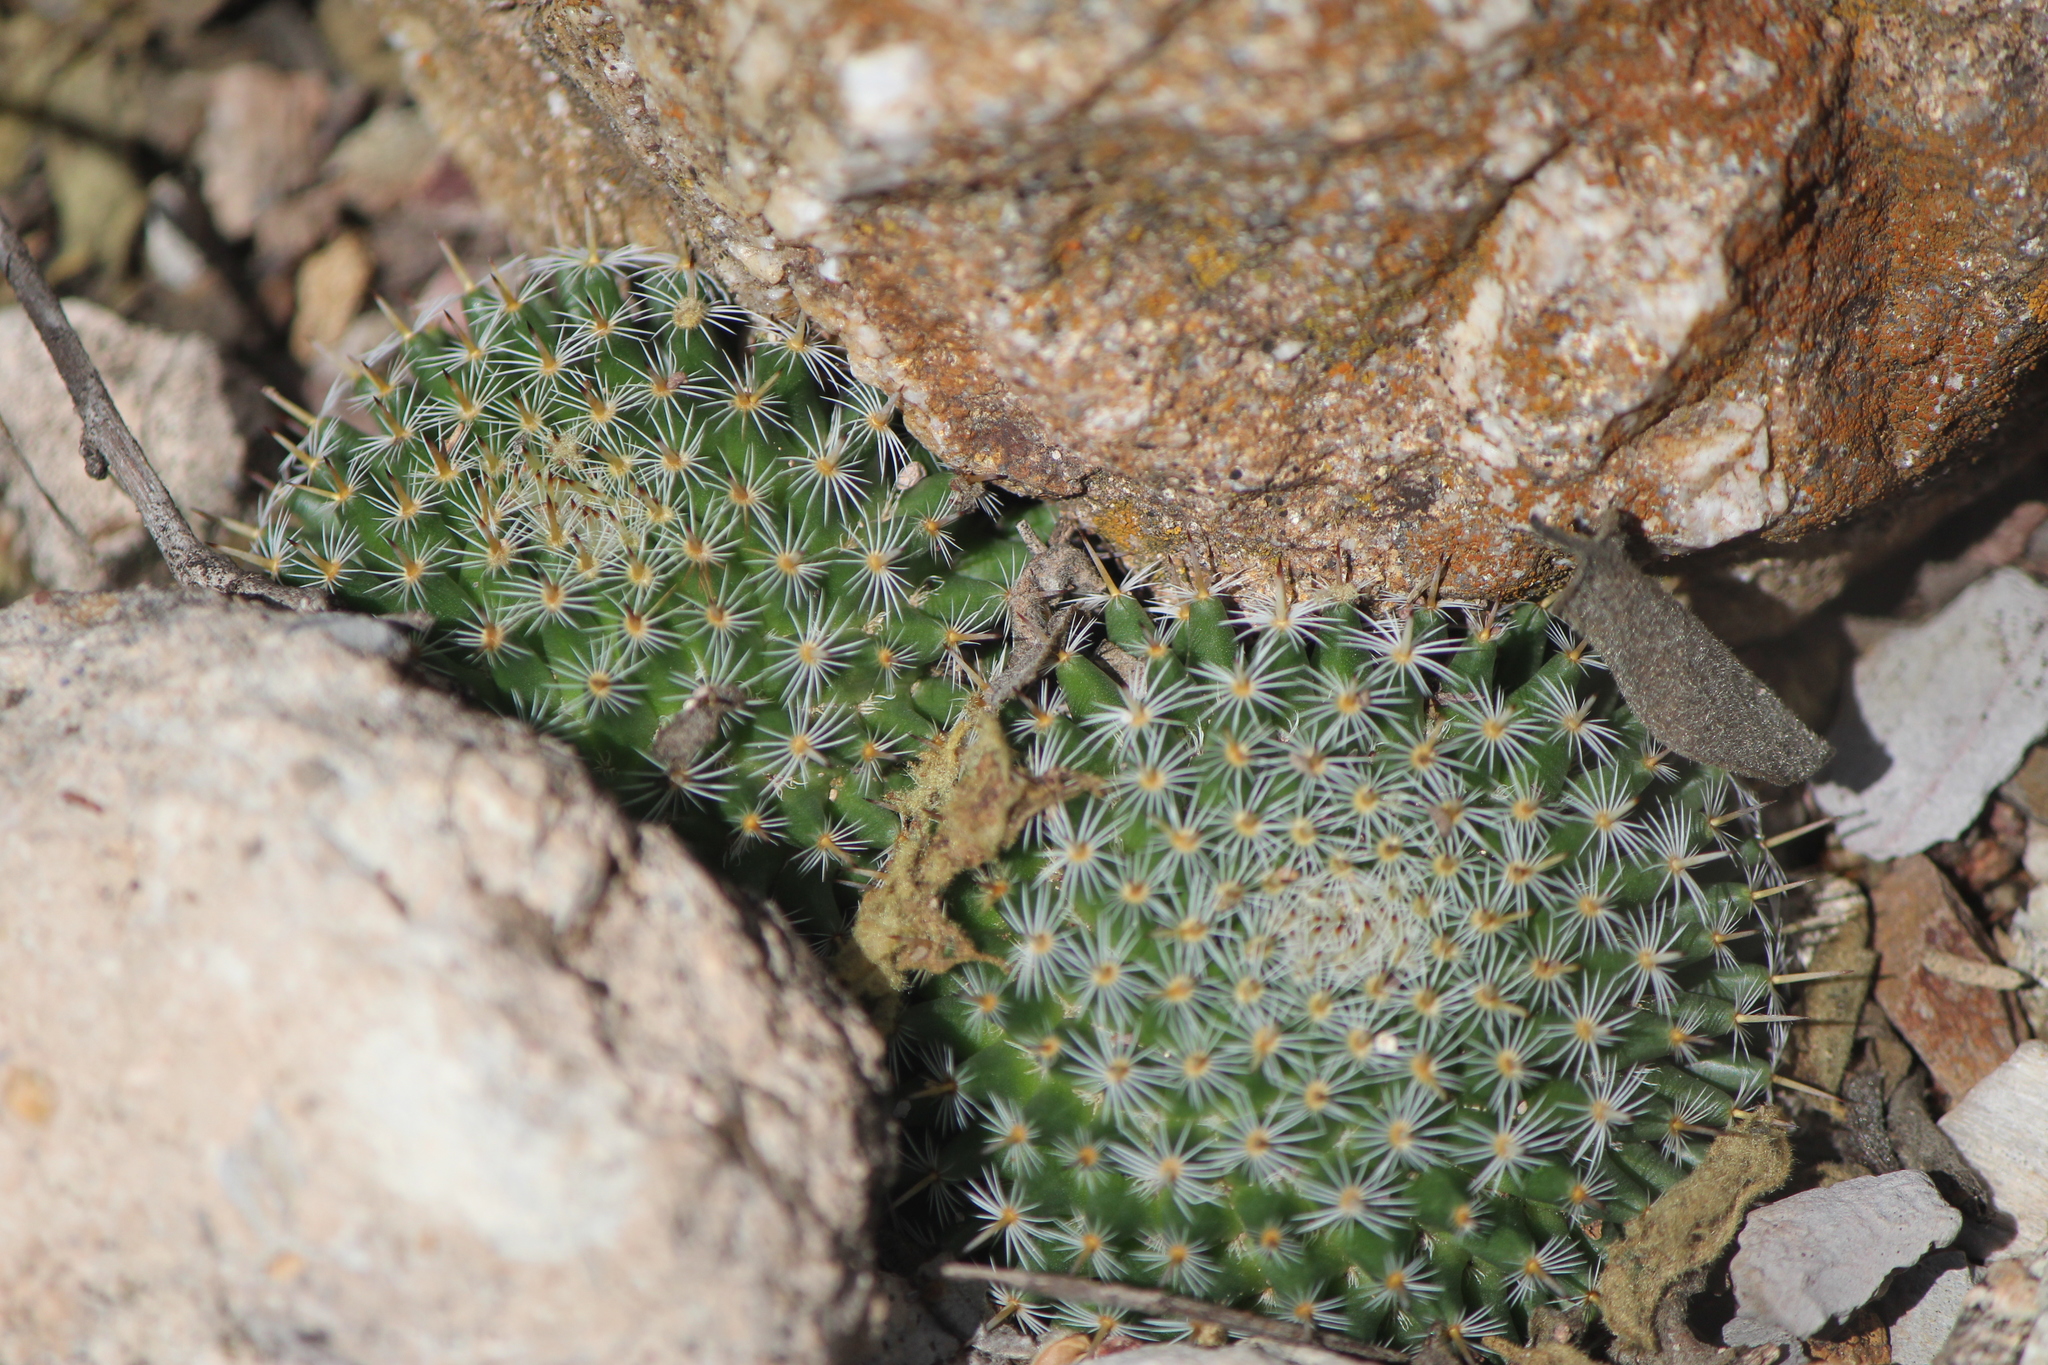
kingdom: Plantae
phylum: Tracheophyta
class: Magnoliopsida
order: Caryophyllales
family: Cactaceae
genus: Mammillaria
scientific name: Mammillaria perbella
